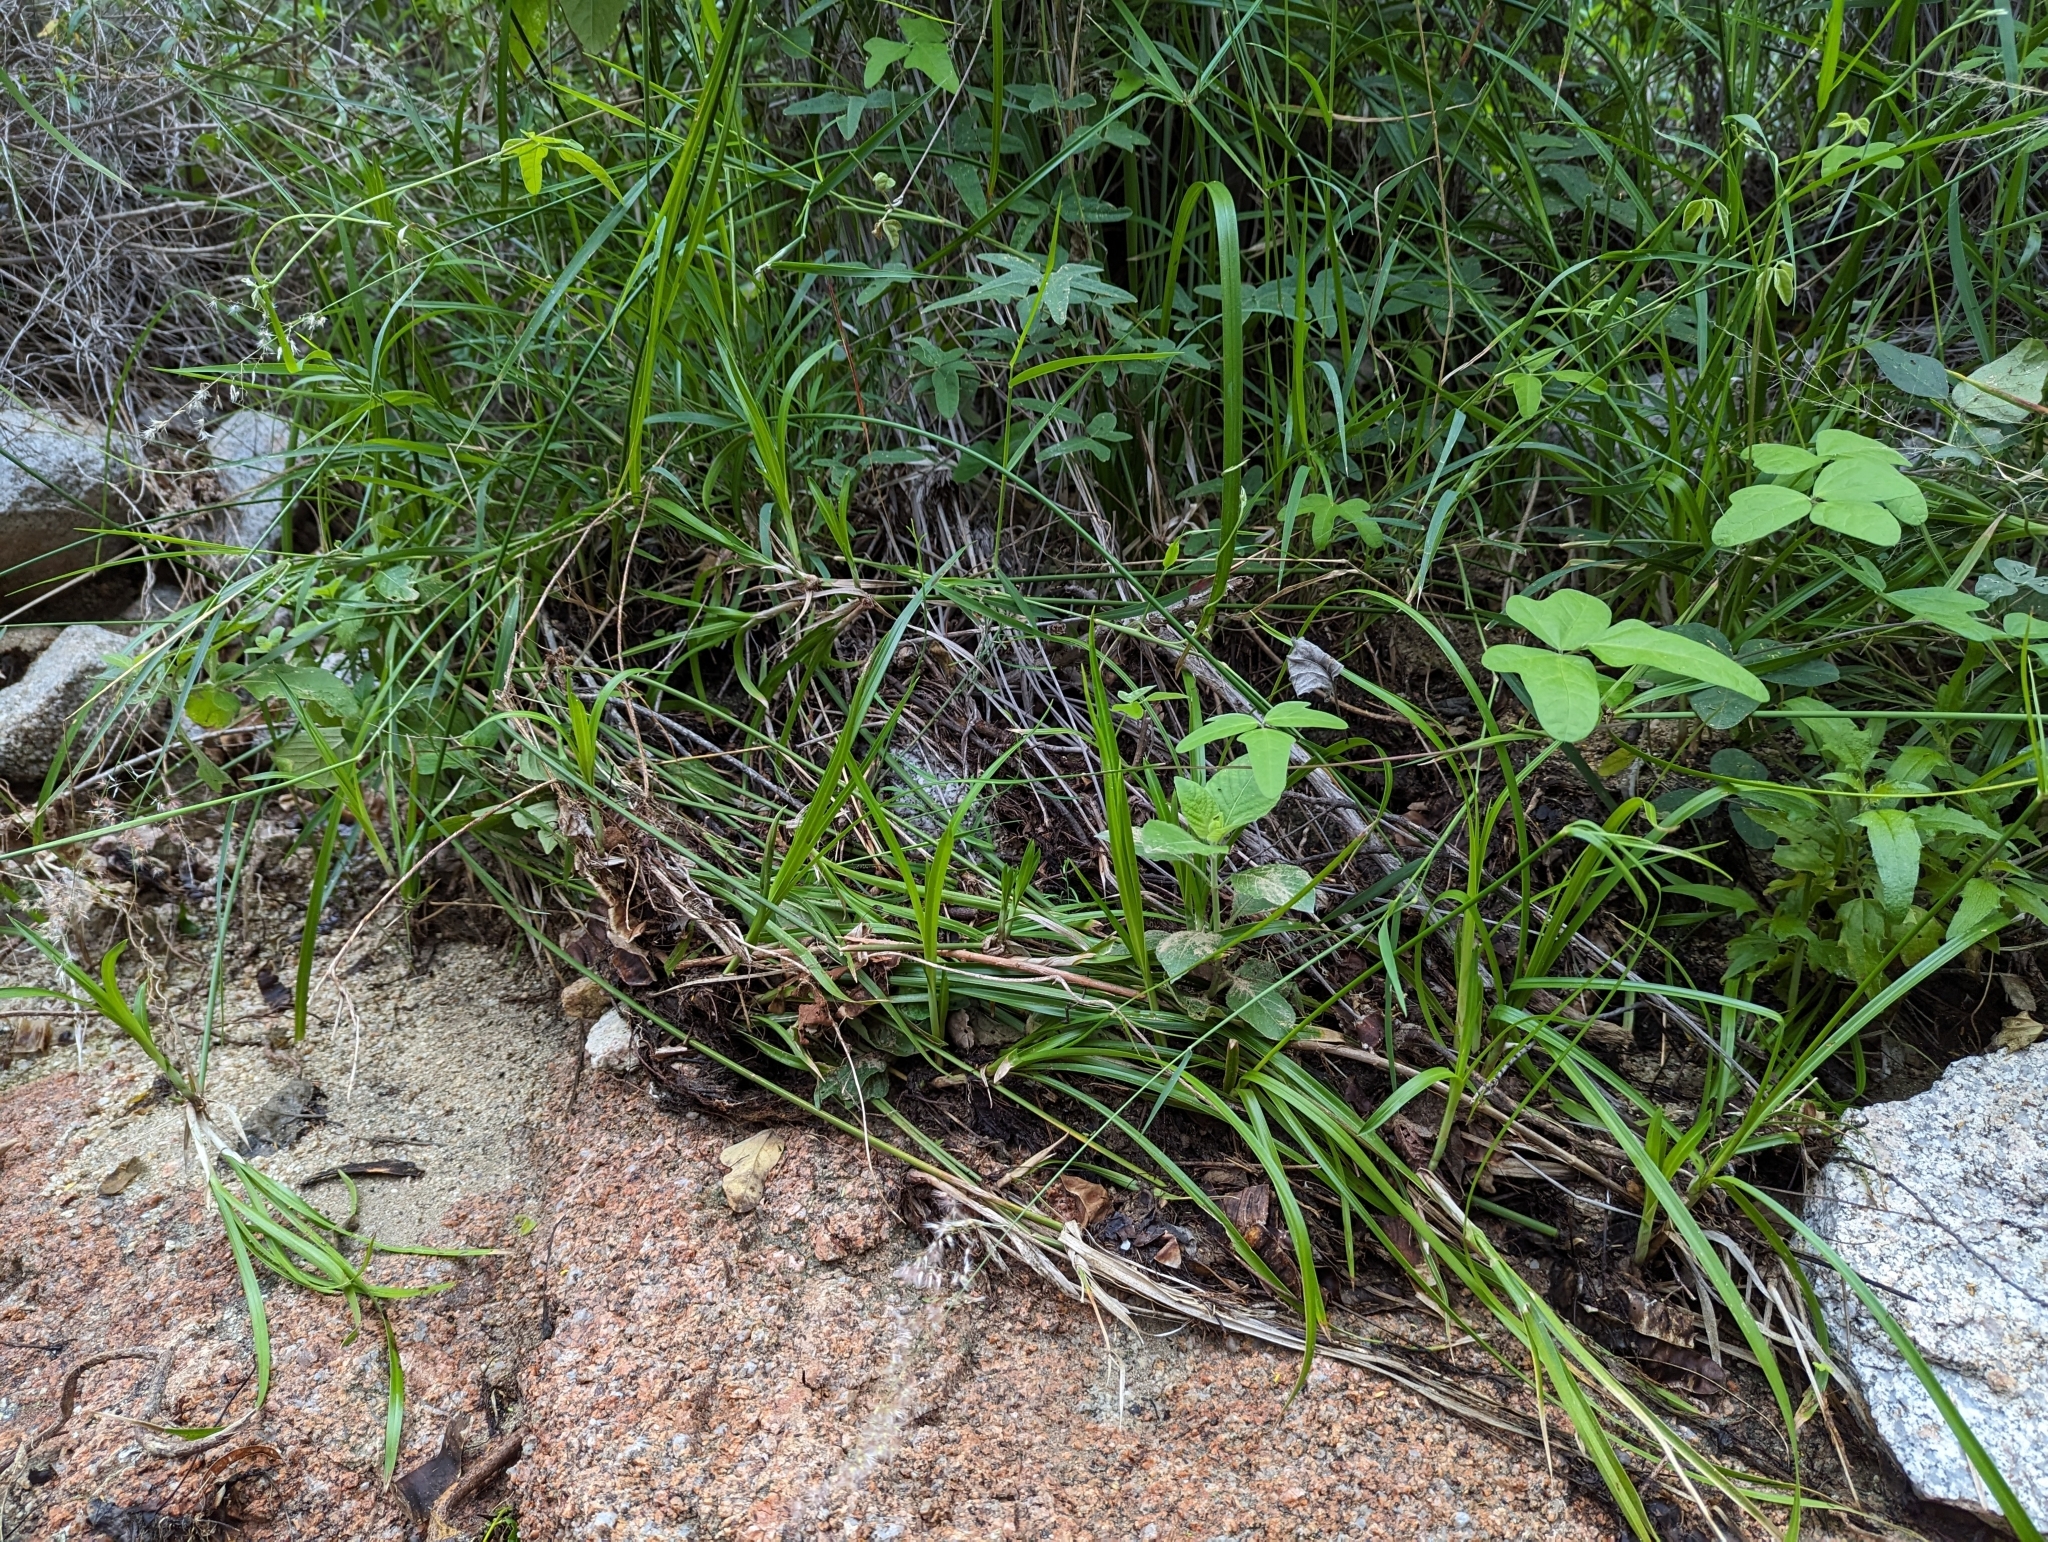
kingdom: Plantae
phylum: Tracheophyta
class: Liliopsida
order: Poales
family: Cyperaceae
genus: Cyperus
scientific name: Cyperus dioicus
